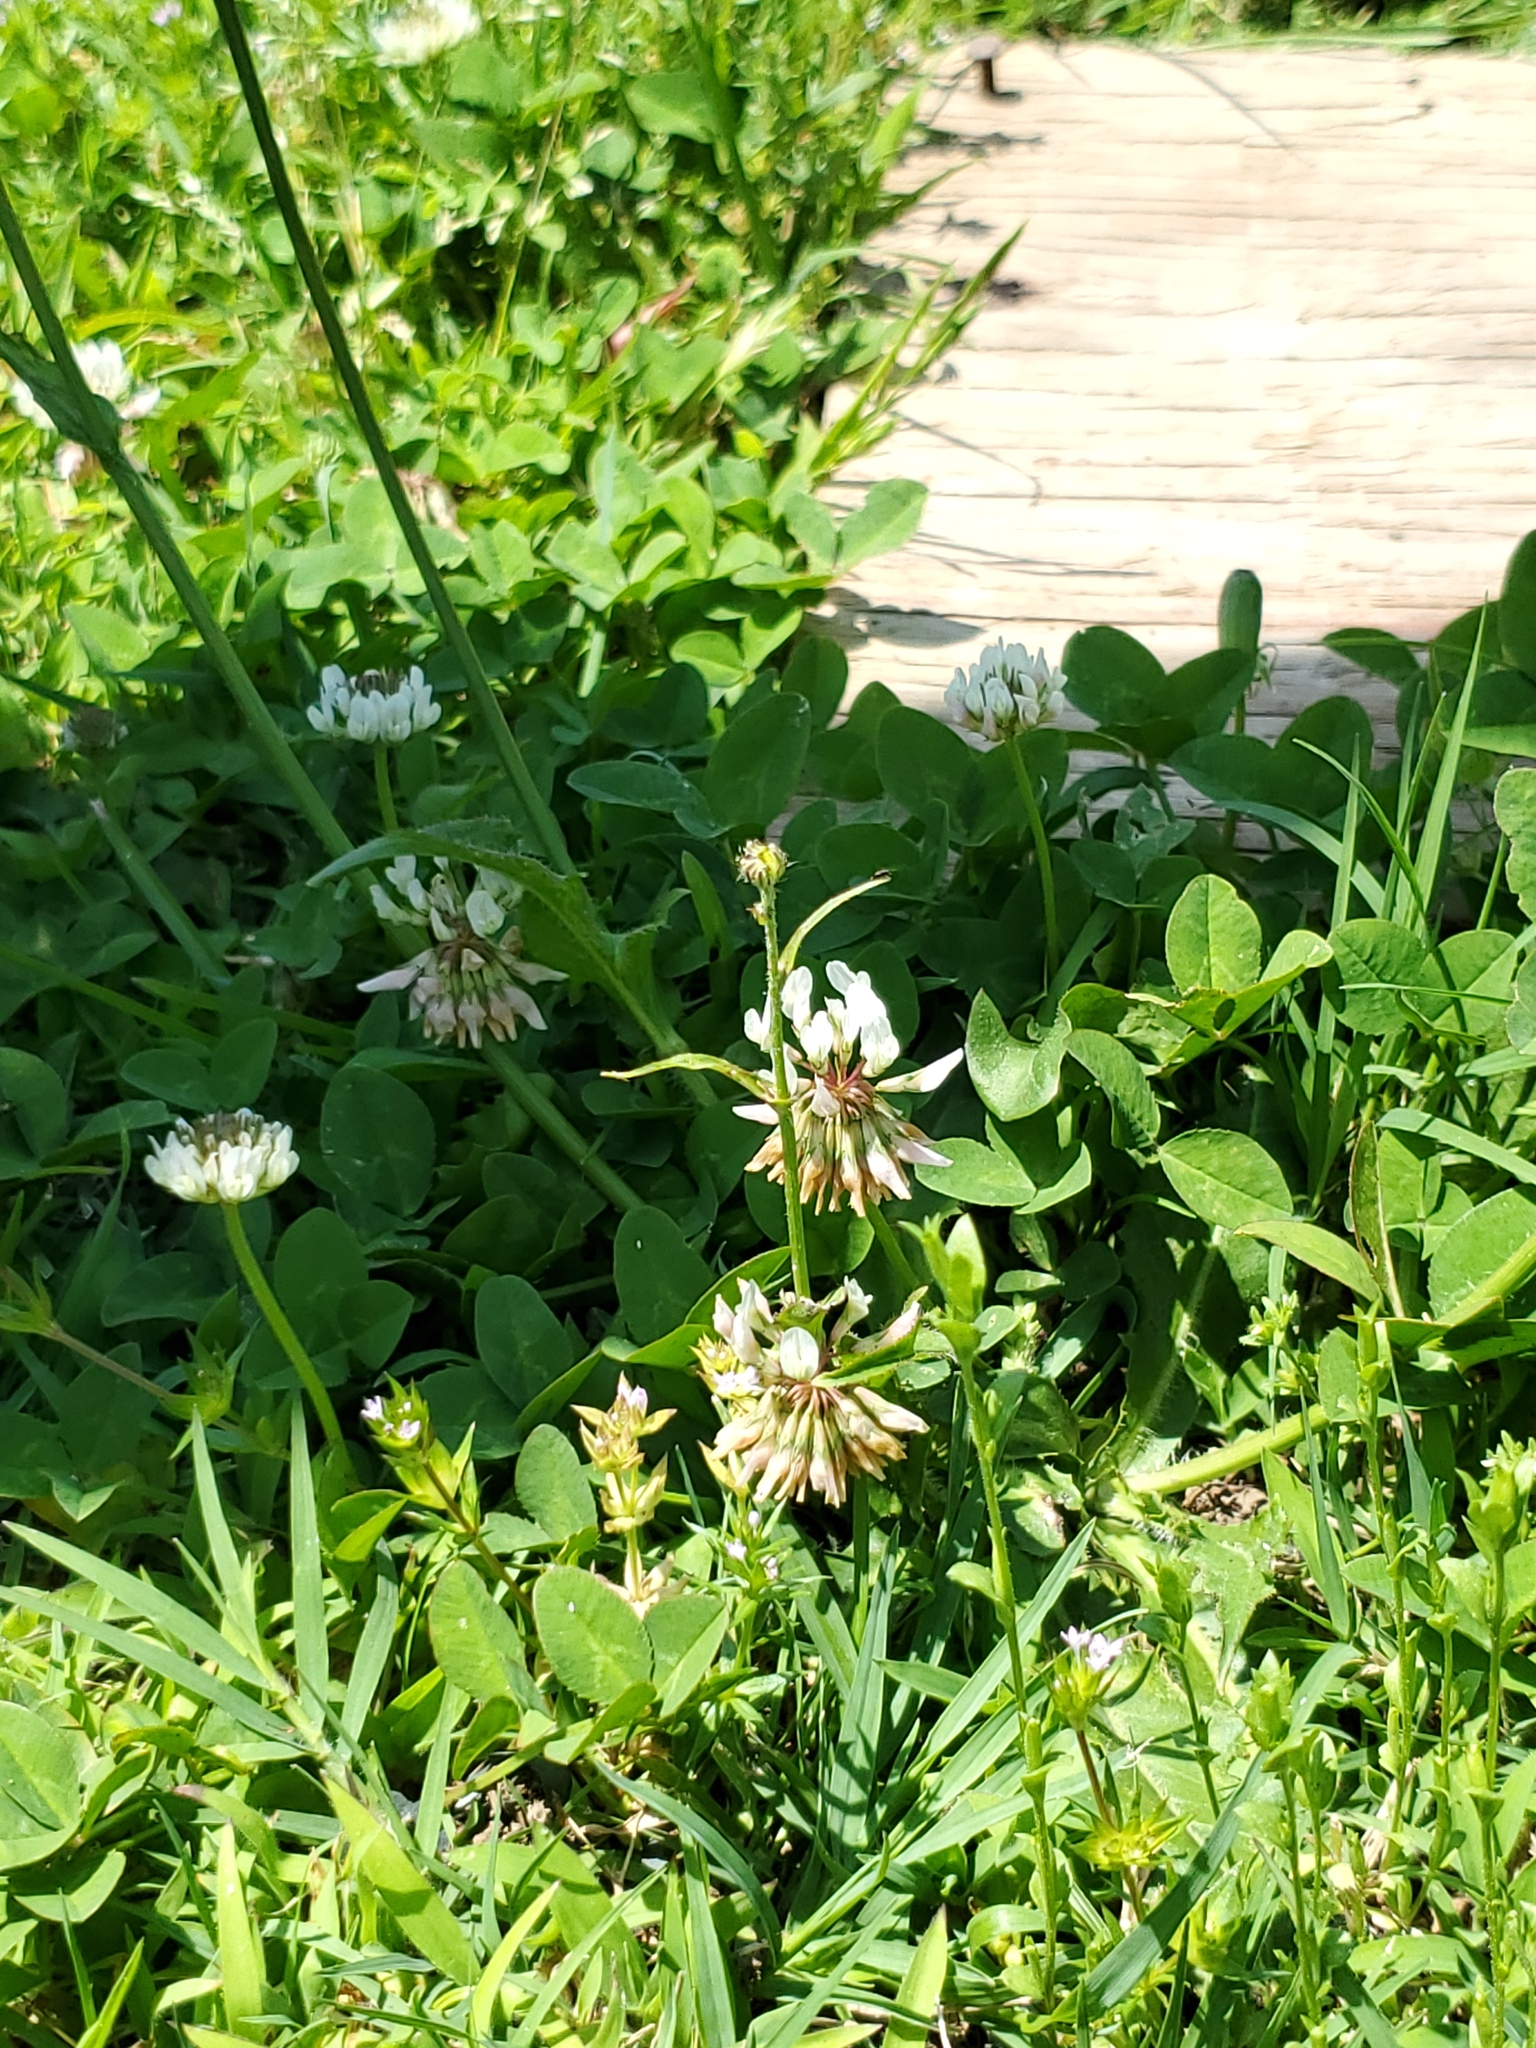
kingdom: Plantae
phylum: Tracheophyta
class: Magnoliopsida
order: Fabales
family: Fabaceae
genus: Trifolium
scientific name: Trifolium repens
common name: White clover
